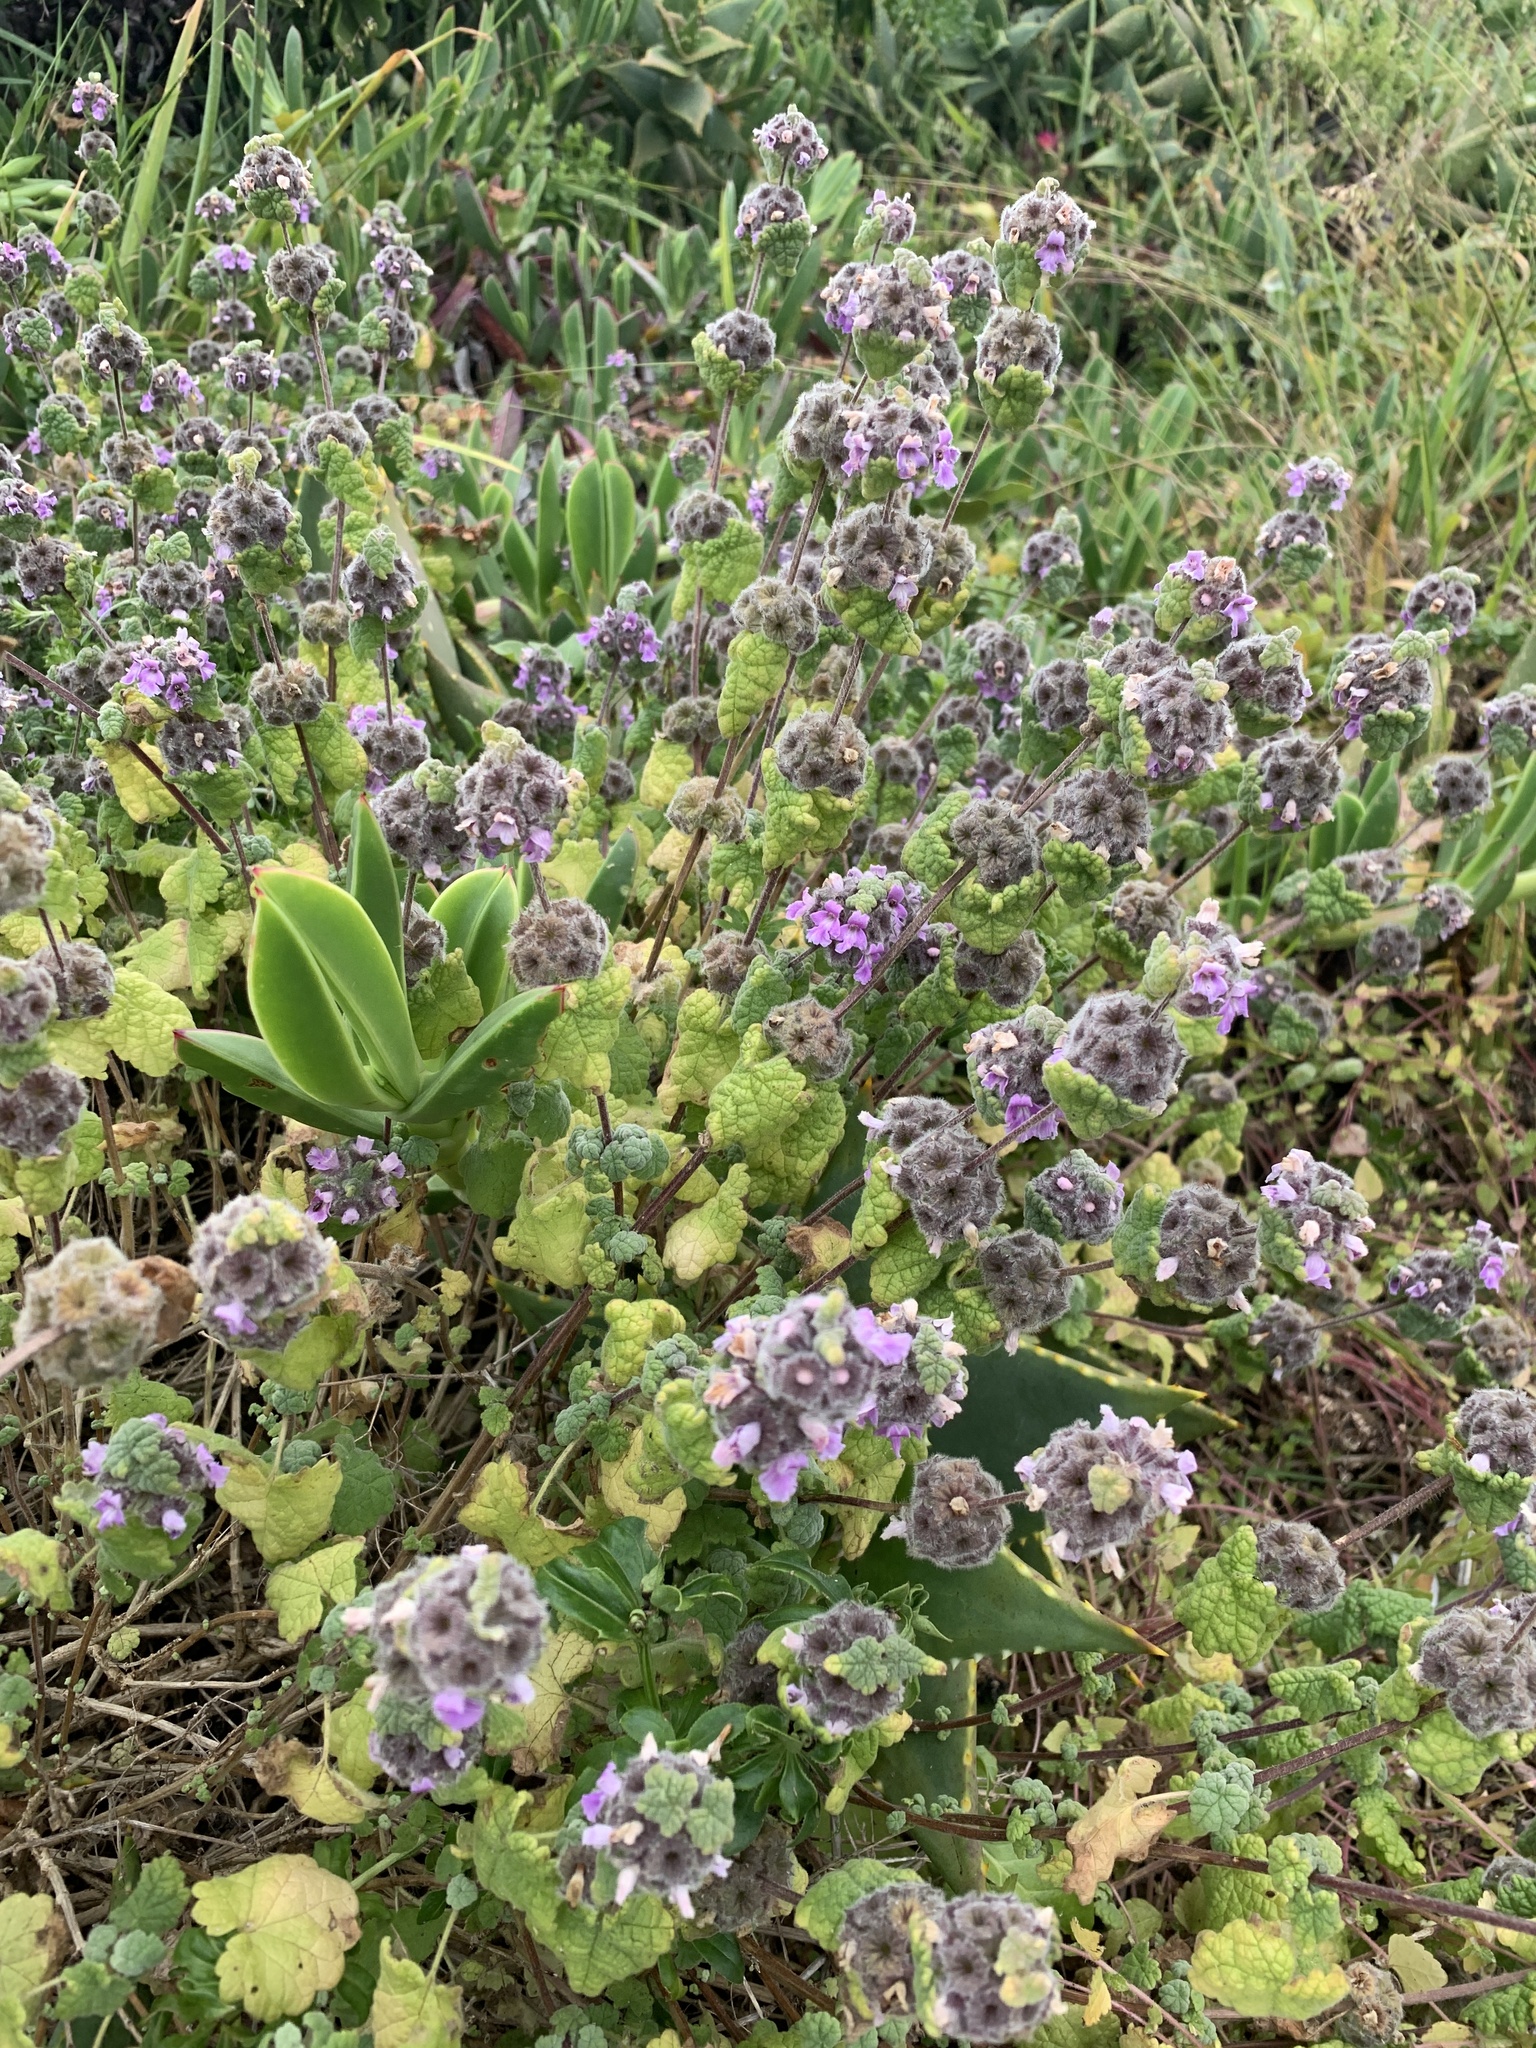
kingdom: Plantae
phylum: Tracheophyta
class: Magnoliopsida
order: Lamiales
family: Lamiaceae
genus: Pseudodictamnus
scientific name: Pseudodictamnus africanus
